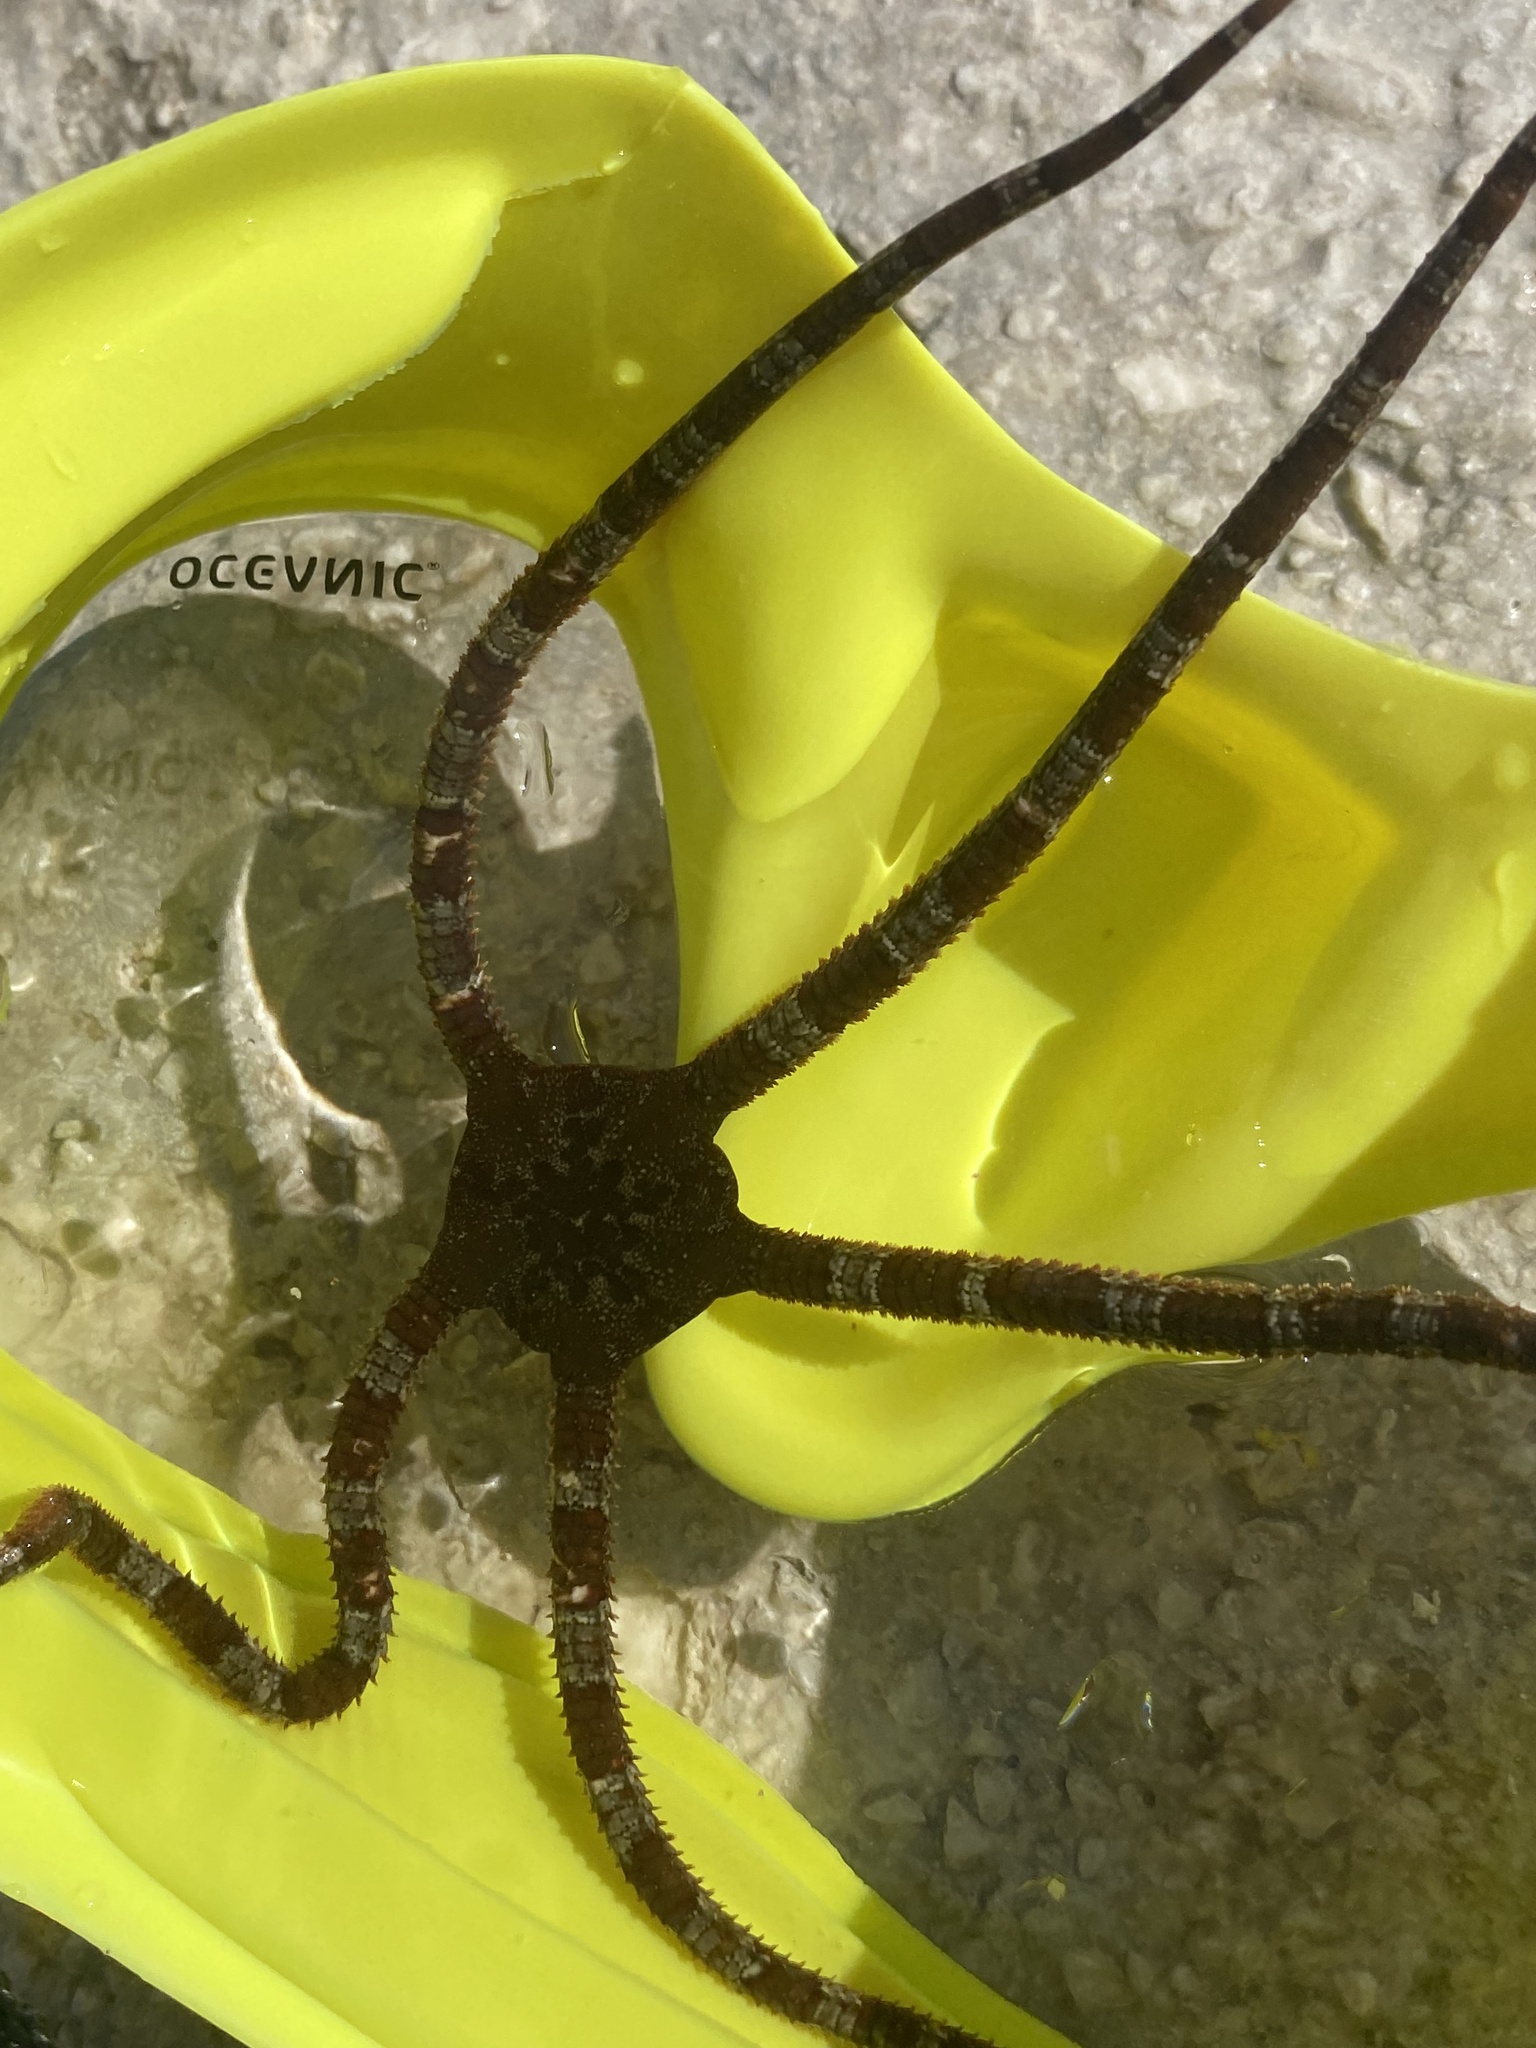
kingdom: Animalia
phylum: Echinodermata
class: Ophiuroidea
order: Ophiacanthida
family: Ophiodermatidae
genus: Ophioderma
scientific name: Ophioderma longicaudum
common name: Smooth brittle-star
